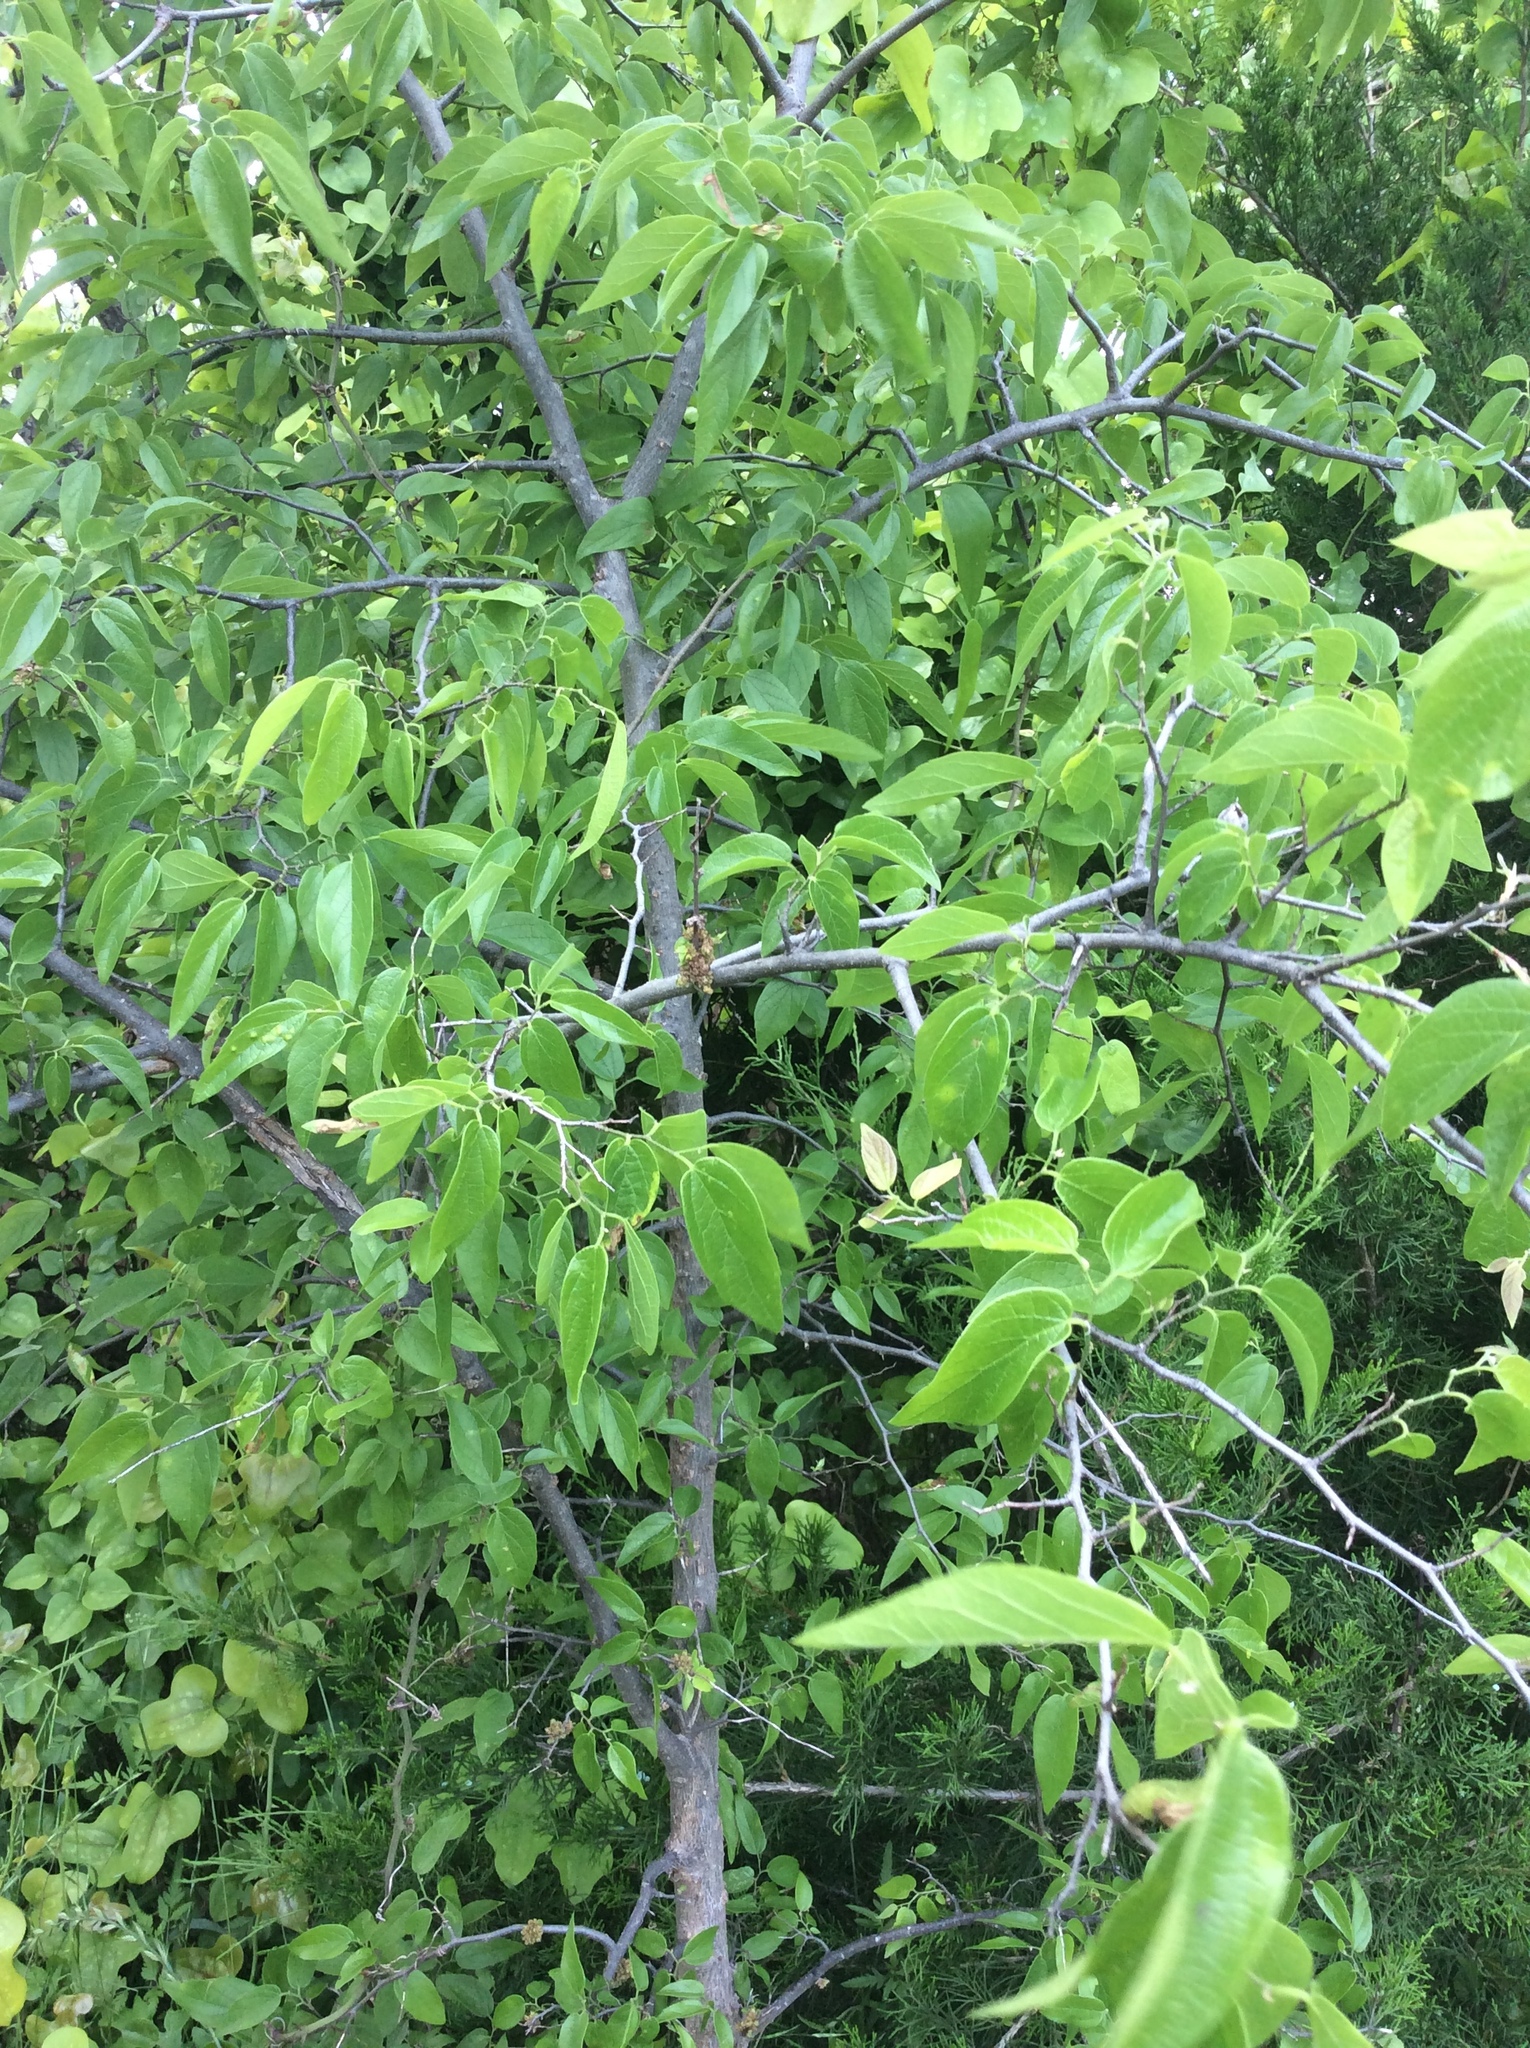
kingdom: Plantae
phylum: Tracheophyta
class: Magnoliopsida
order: Rosales
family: Cannabaceae
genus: Celtis
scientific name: Celtis laevigata
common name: Sugarberry
